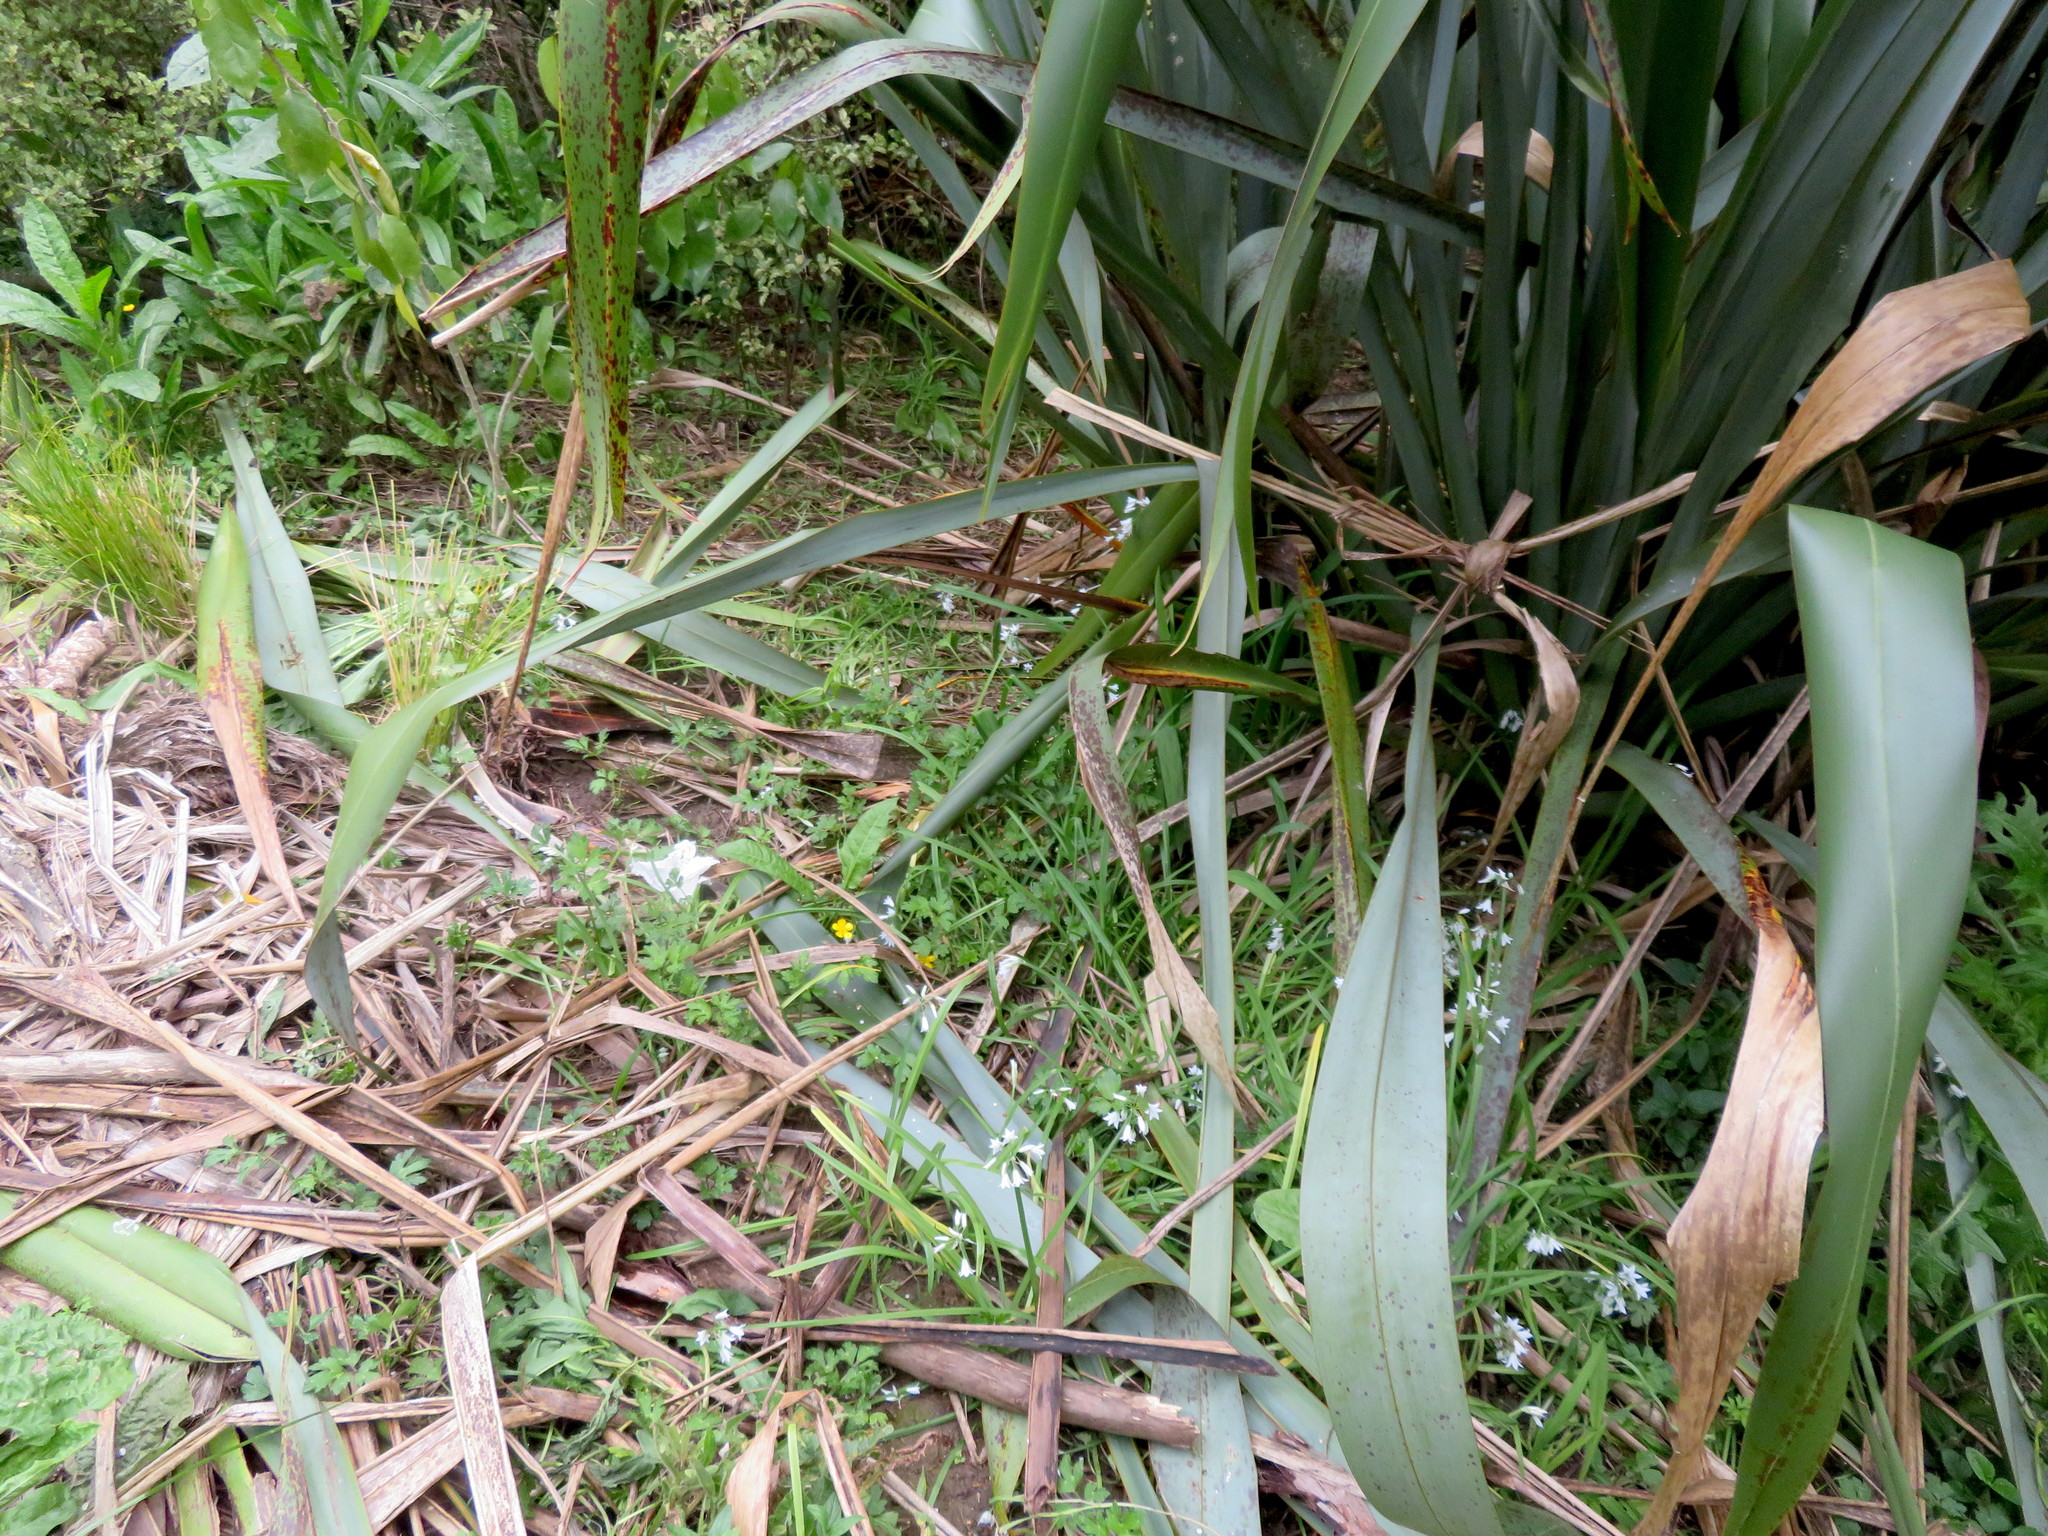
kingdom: Plantae
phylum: Tracheophyta
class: Liliopsida
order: Asparagales
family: Amaryllidaceae
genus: Allium
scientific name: Allium triquetrum
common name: Three-cornered garlic
